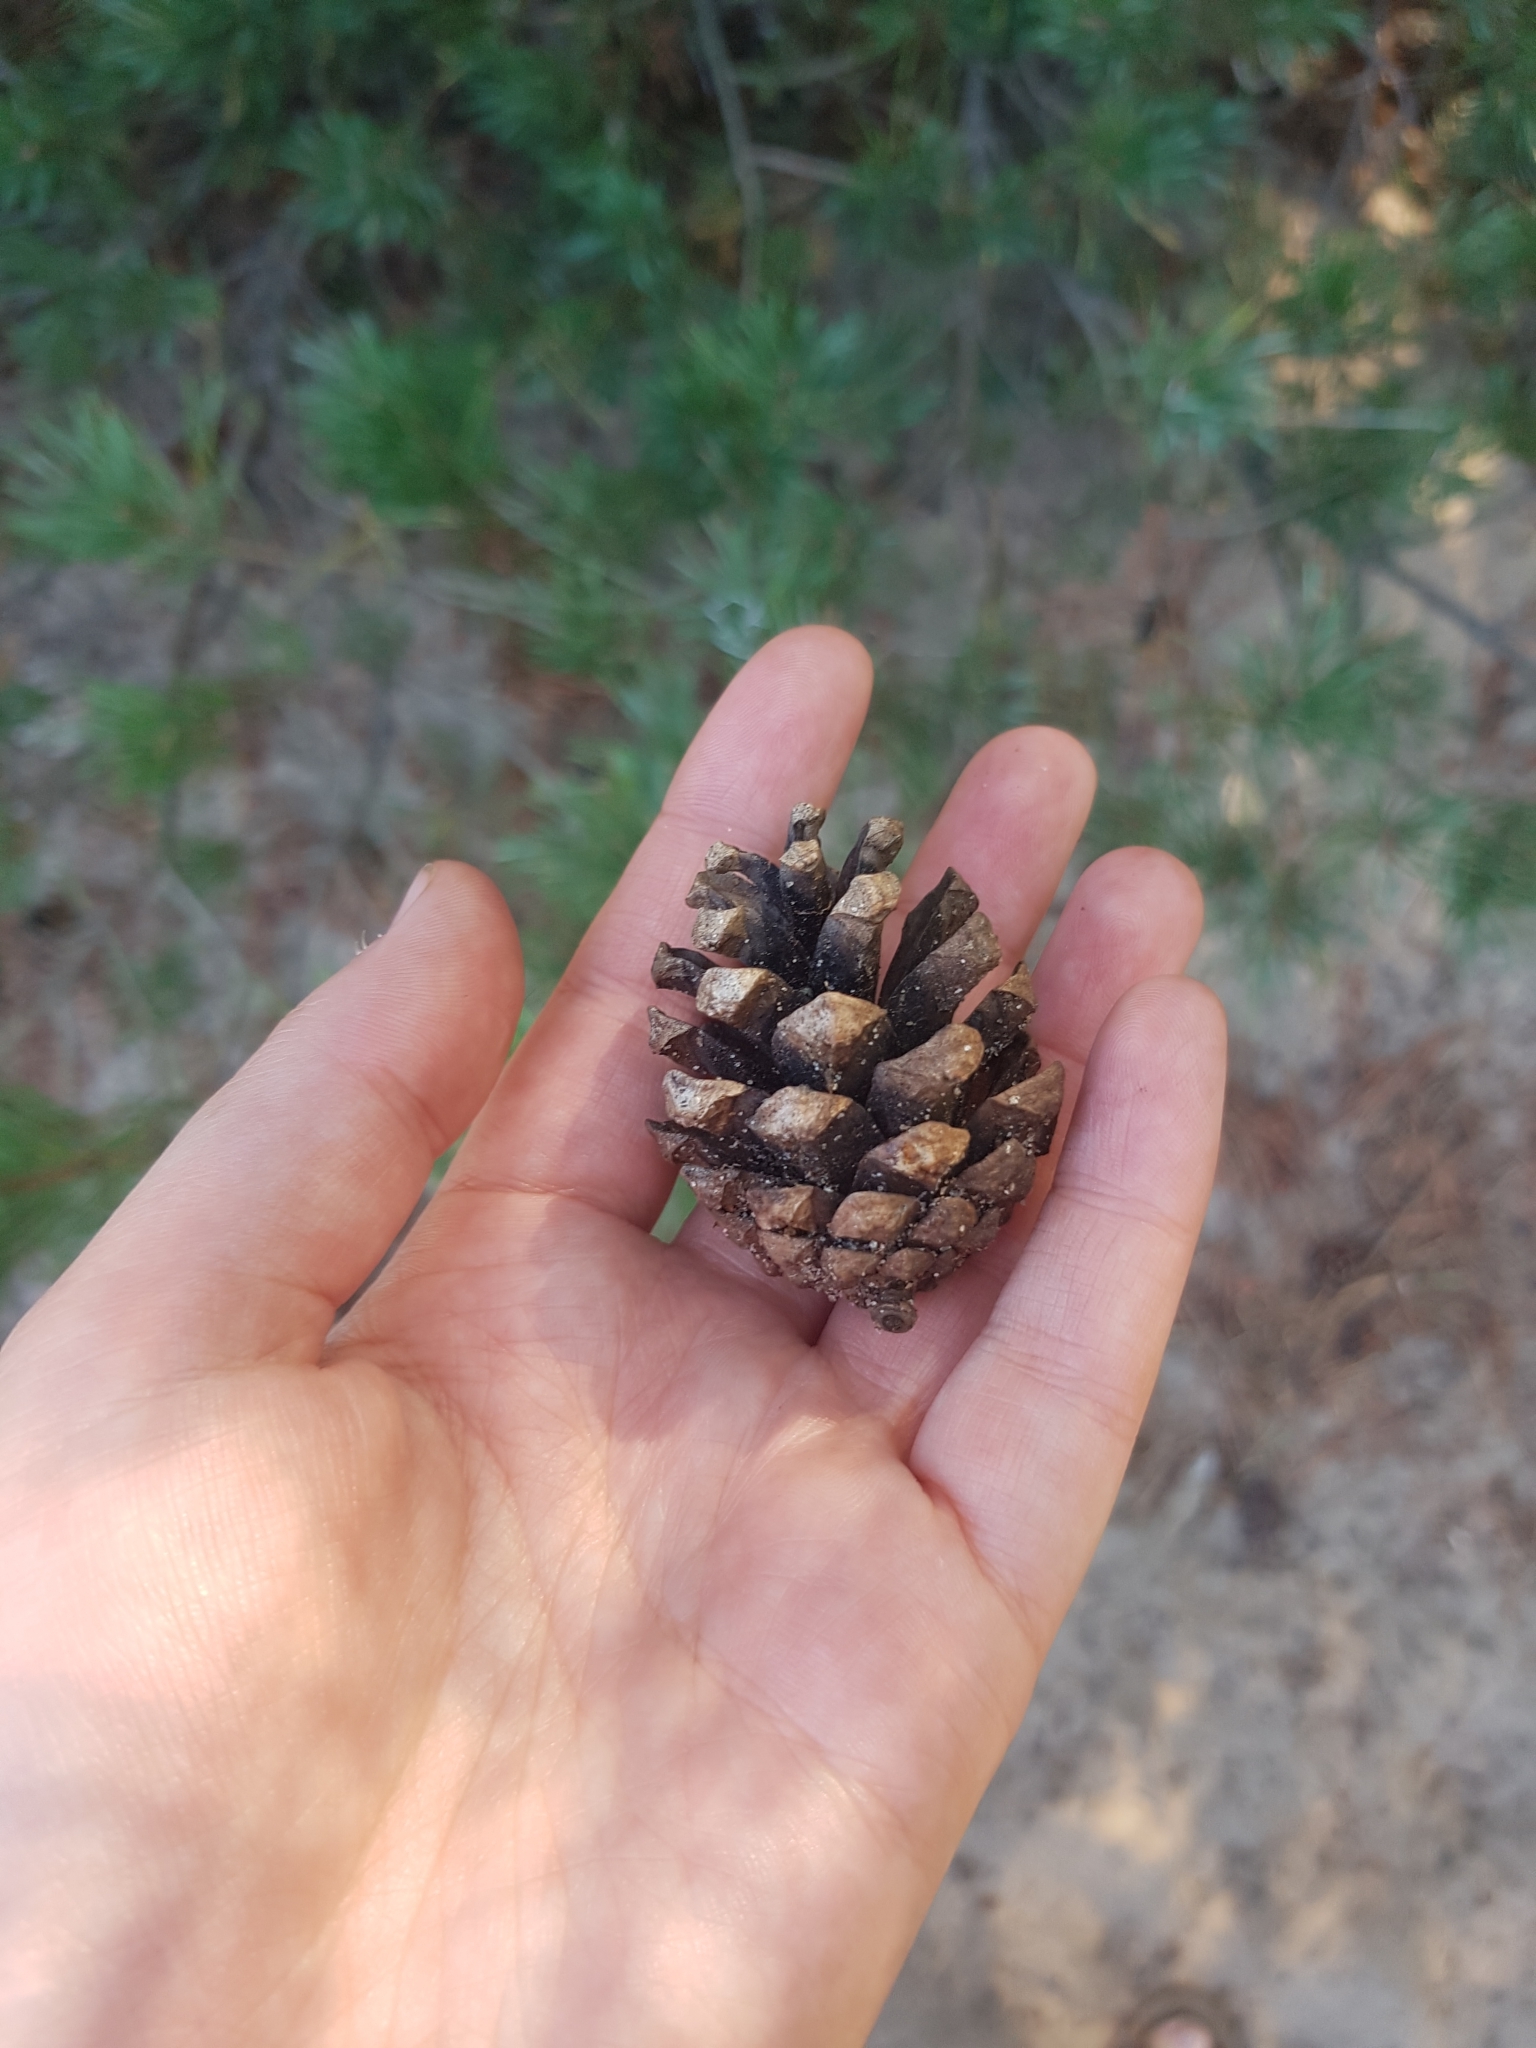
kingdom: Plantae
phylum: Tracheophyta
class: Pinopsida
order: Pinales
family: Pinaceae
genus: Pinus
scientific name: Pinus sylvestris
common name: Scots pine
